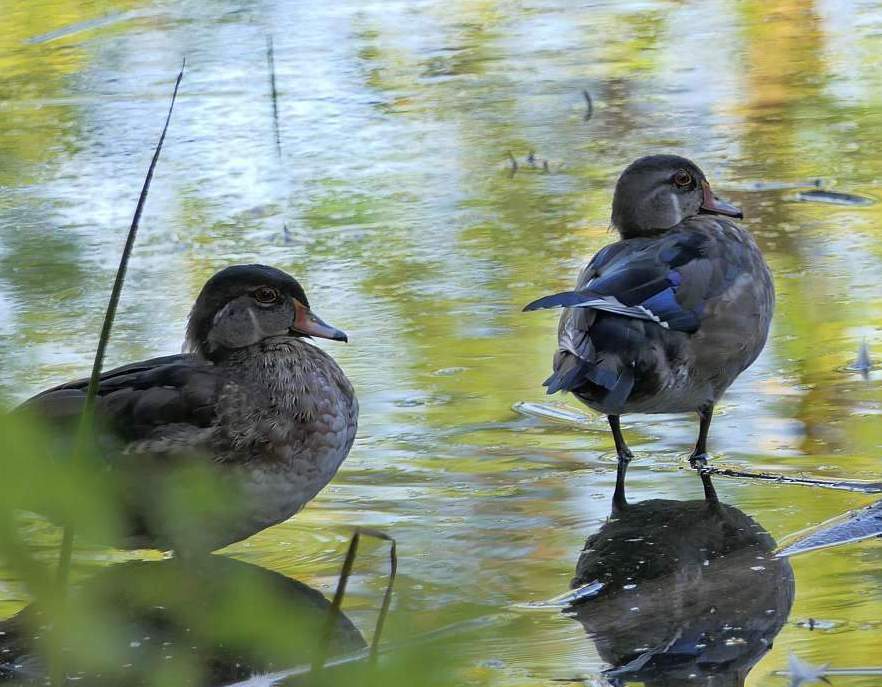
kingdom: Animalia
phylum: Chordata
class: Aves
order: Anseriformes
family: Anatidae
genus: Aix
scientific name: Aix sponsa
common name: Wood duck
